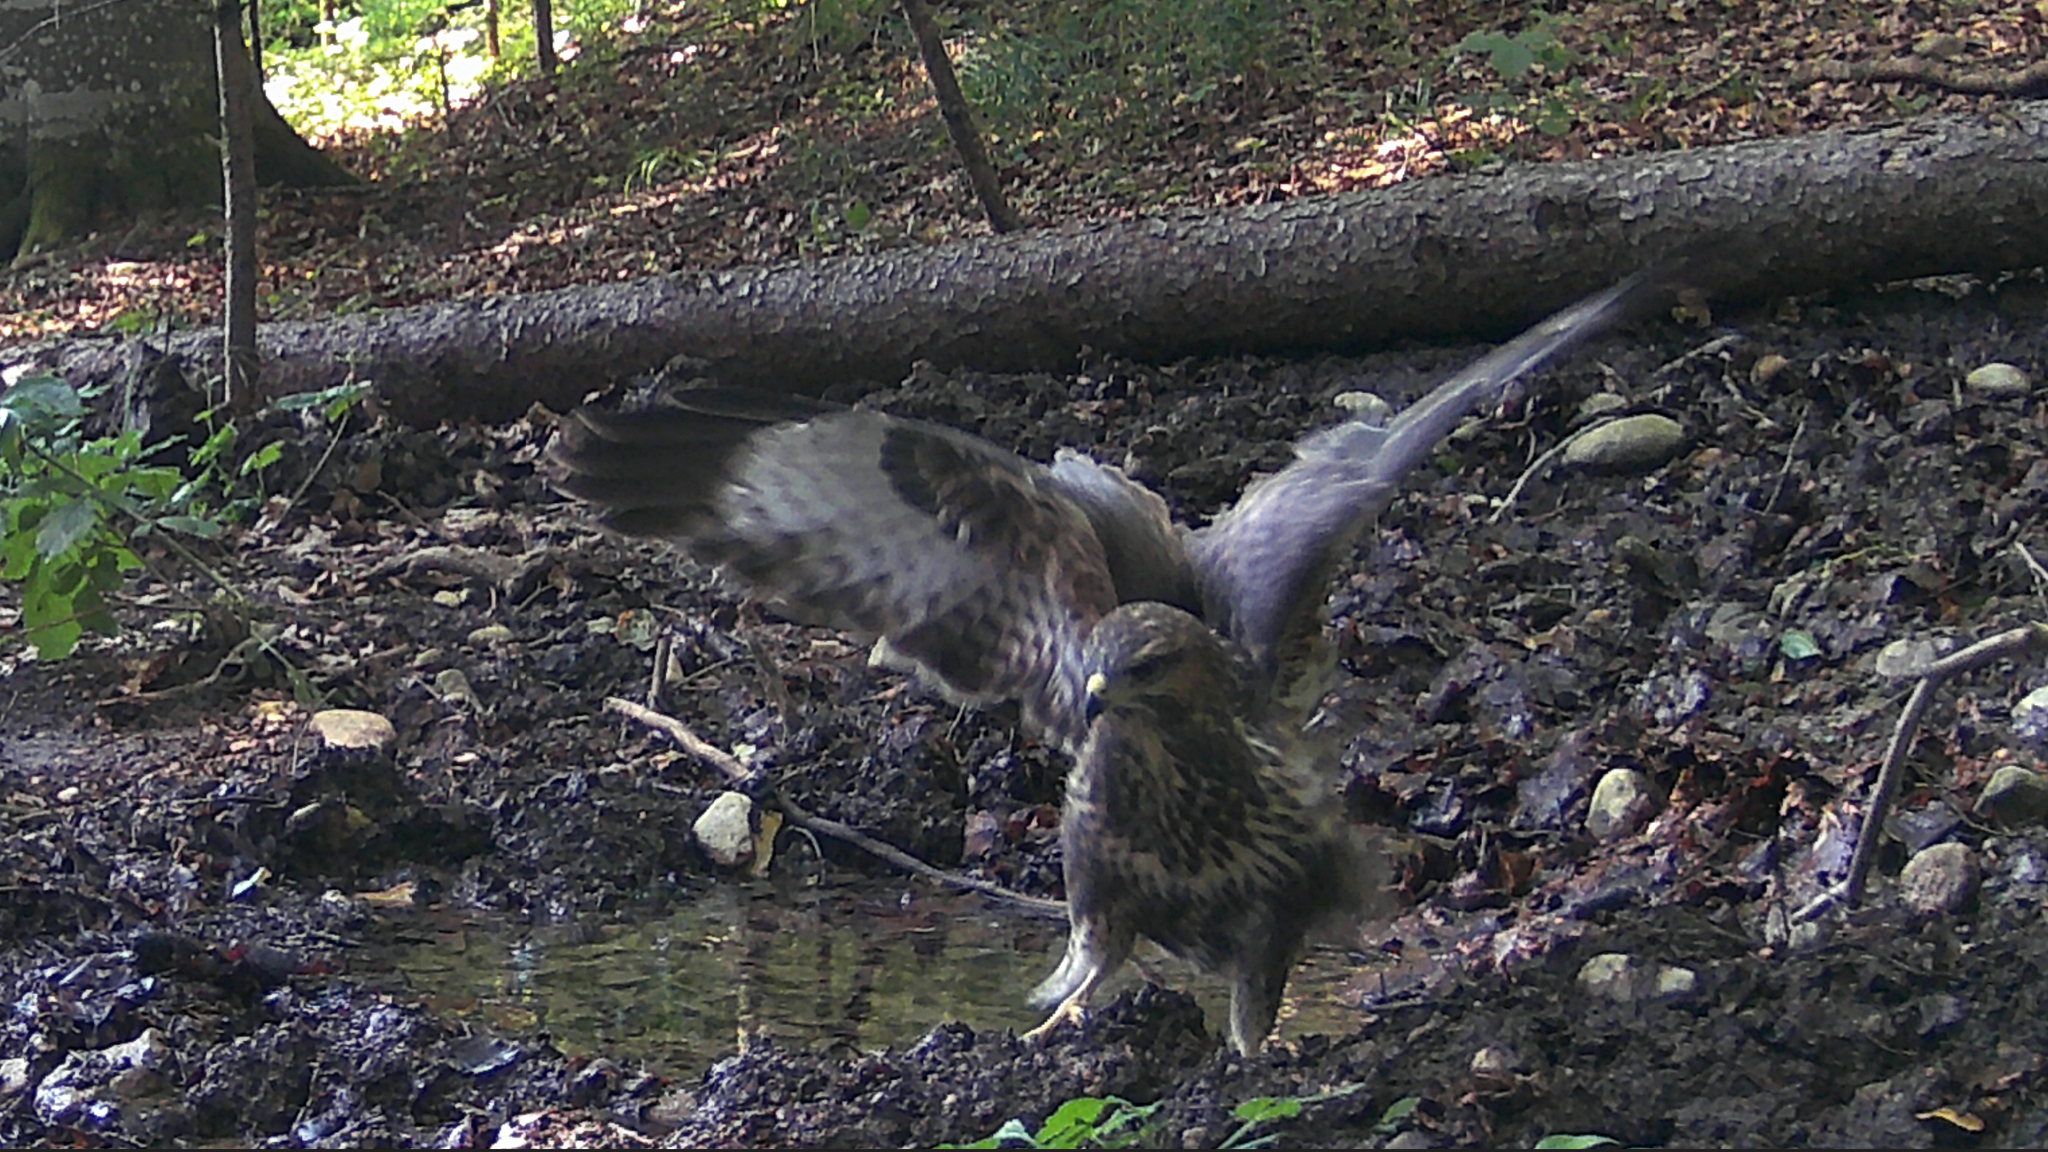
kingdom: Animalia
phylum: Chordata
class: Aves
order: Accipitriformes
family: Accipitridae
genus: Buteo
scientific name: Buteo buteo
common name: Common buzzard
